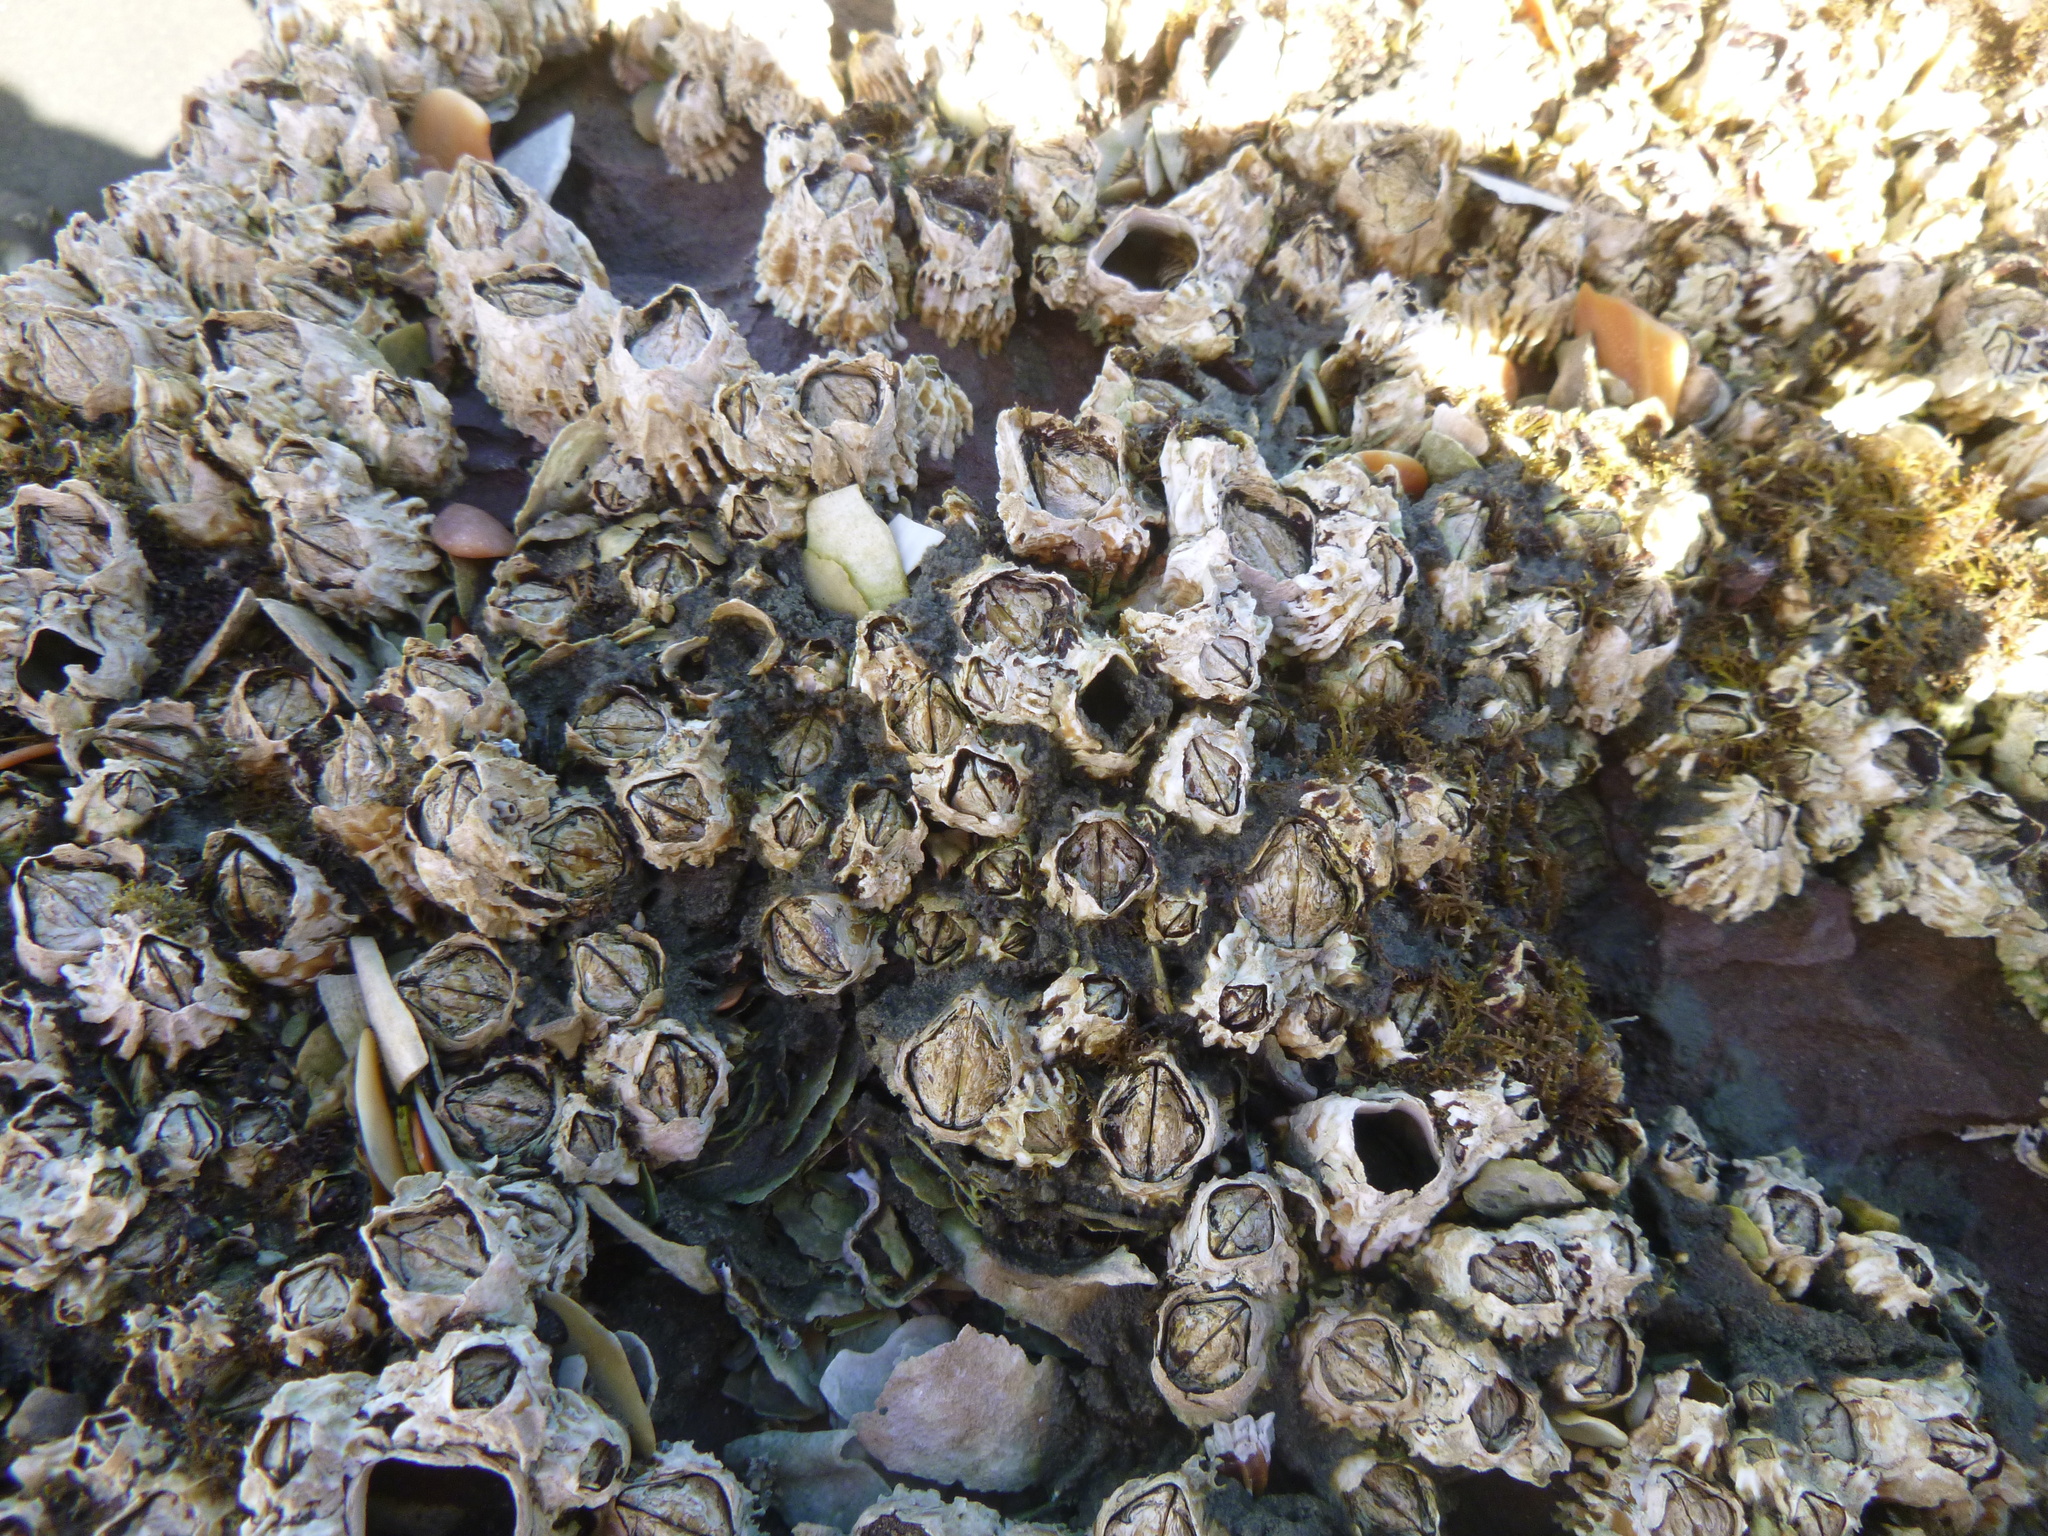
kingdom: Animalia
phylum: Arthropoda
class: Maxillopoda
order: Sessilia
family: Tetraclitidae
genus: Epopella
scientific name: Epopella plicata
